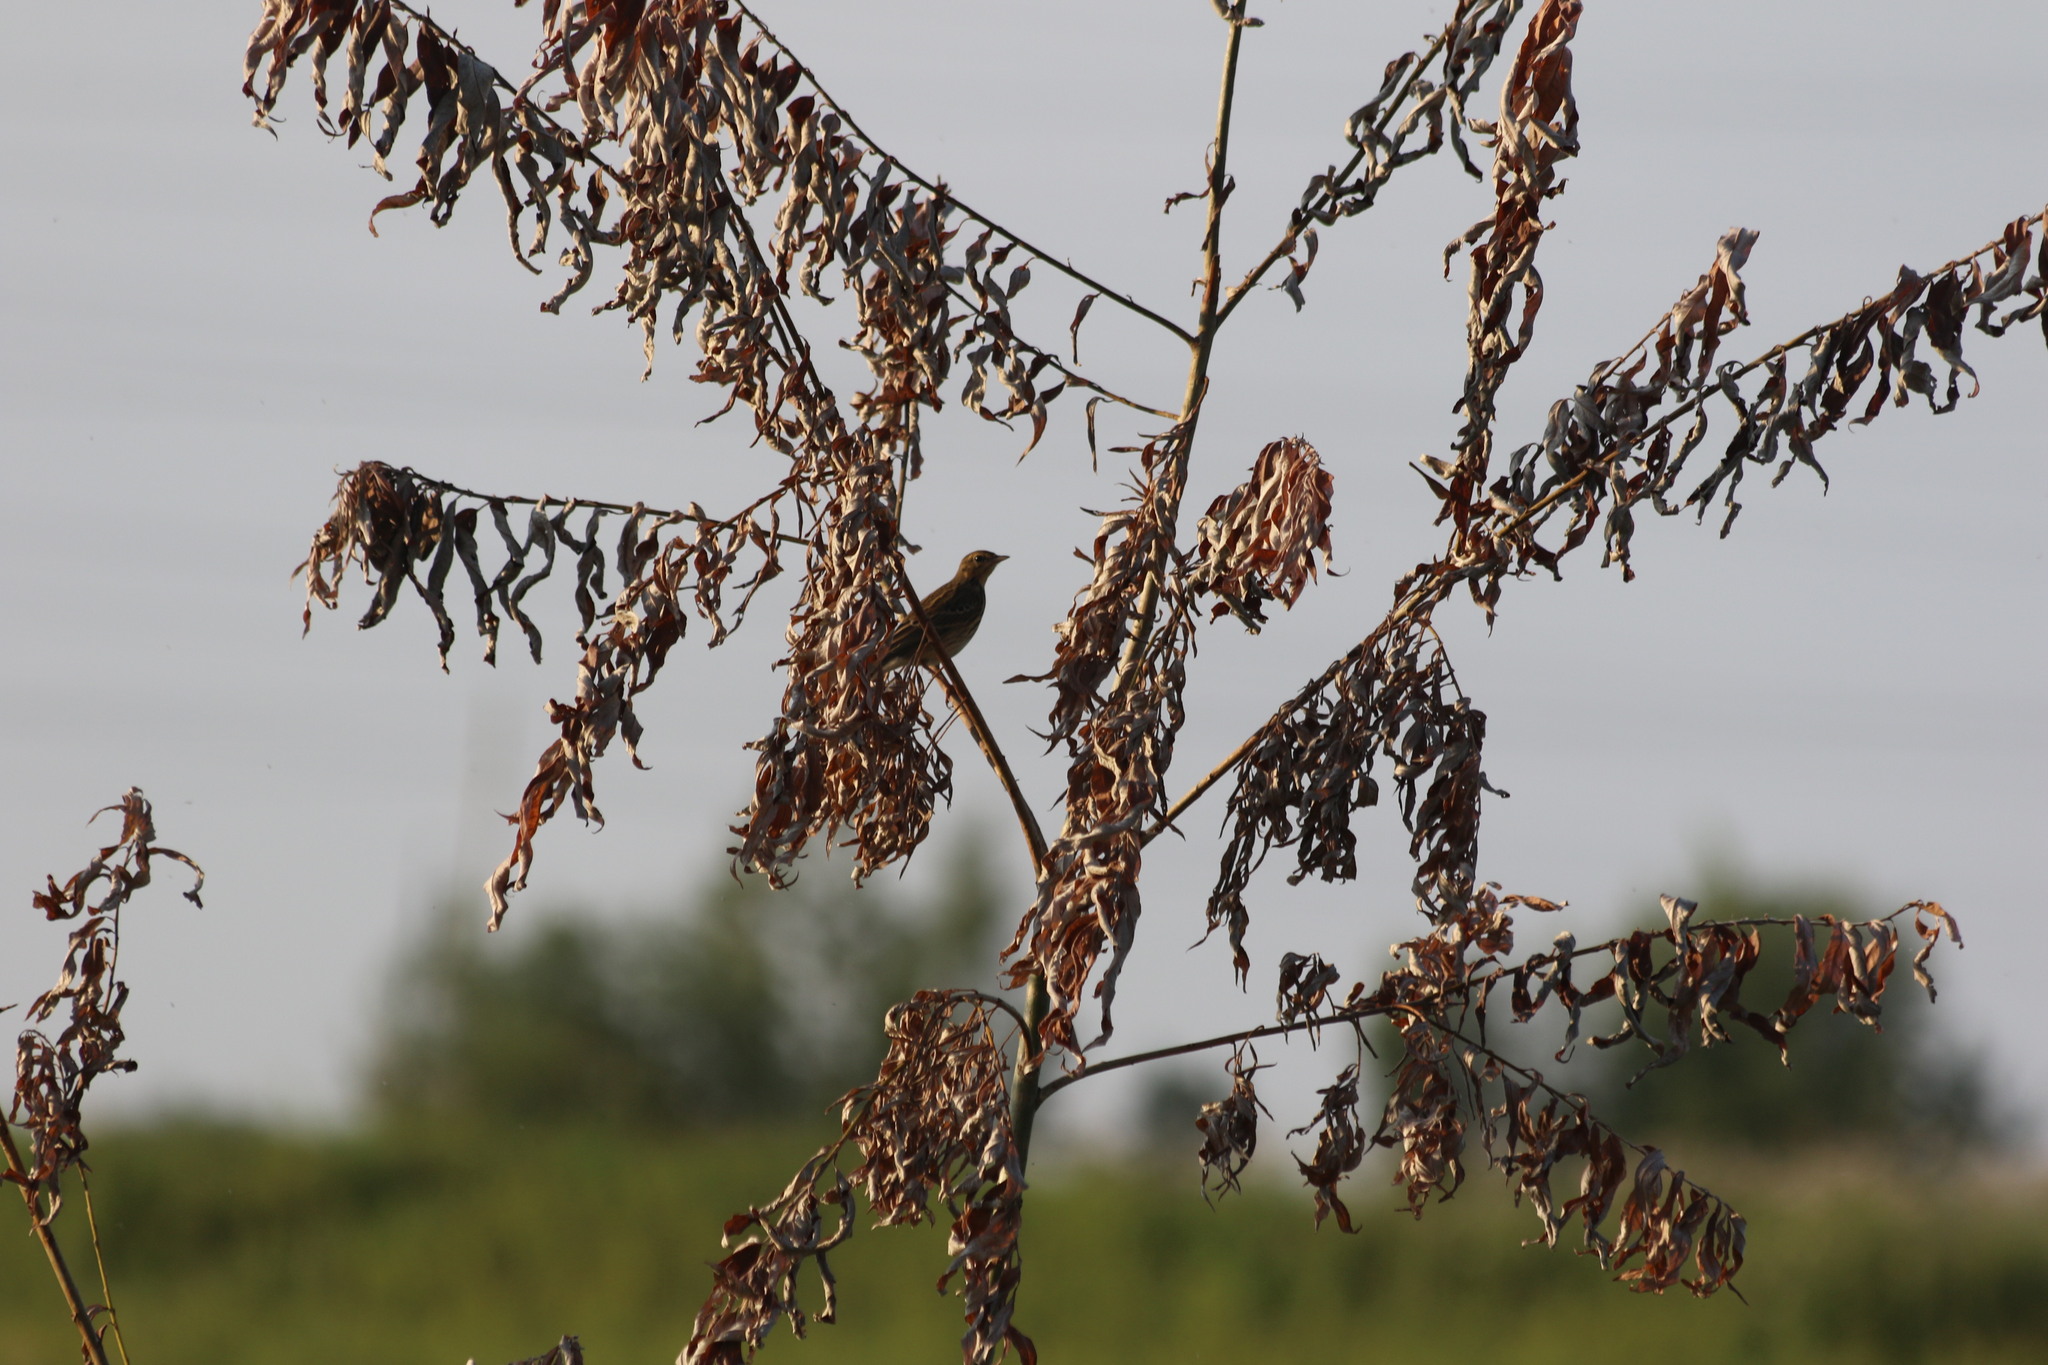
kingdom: Animalia
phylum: Chordata
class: Aves
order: Passeriformes
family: Motacillidae
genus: Anthus
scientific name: Anthus trivialis
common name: Tree pipit
